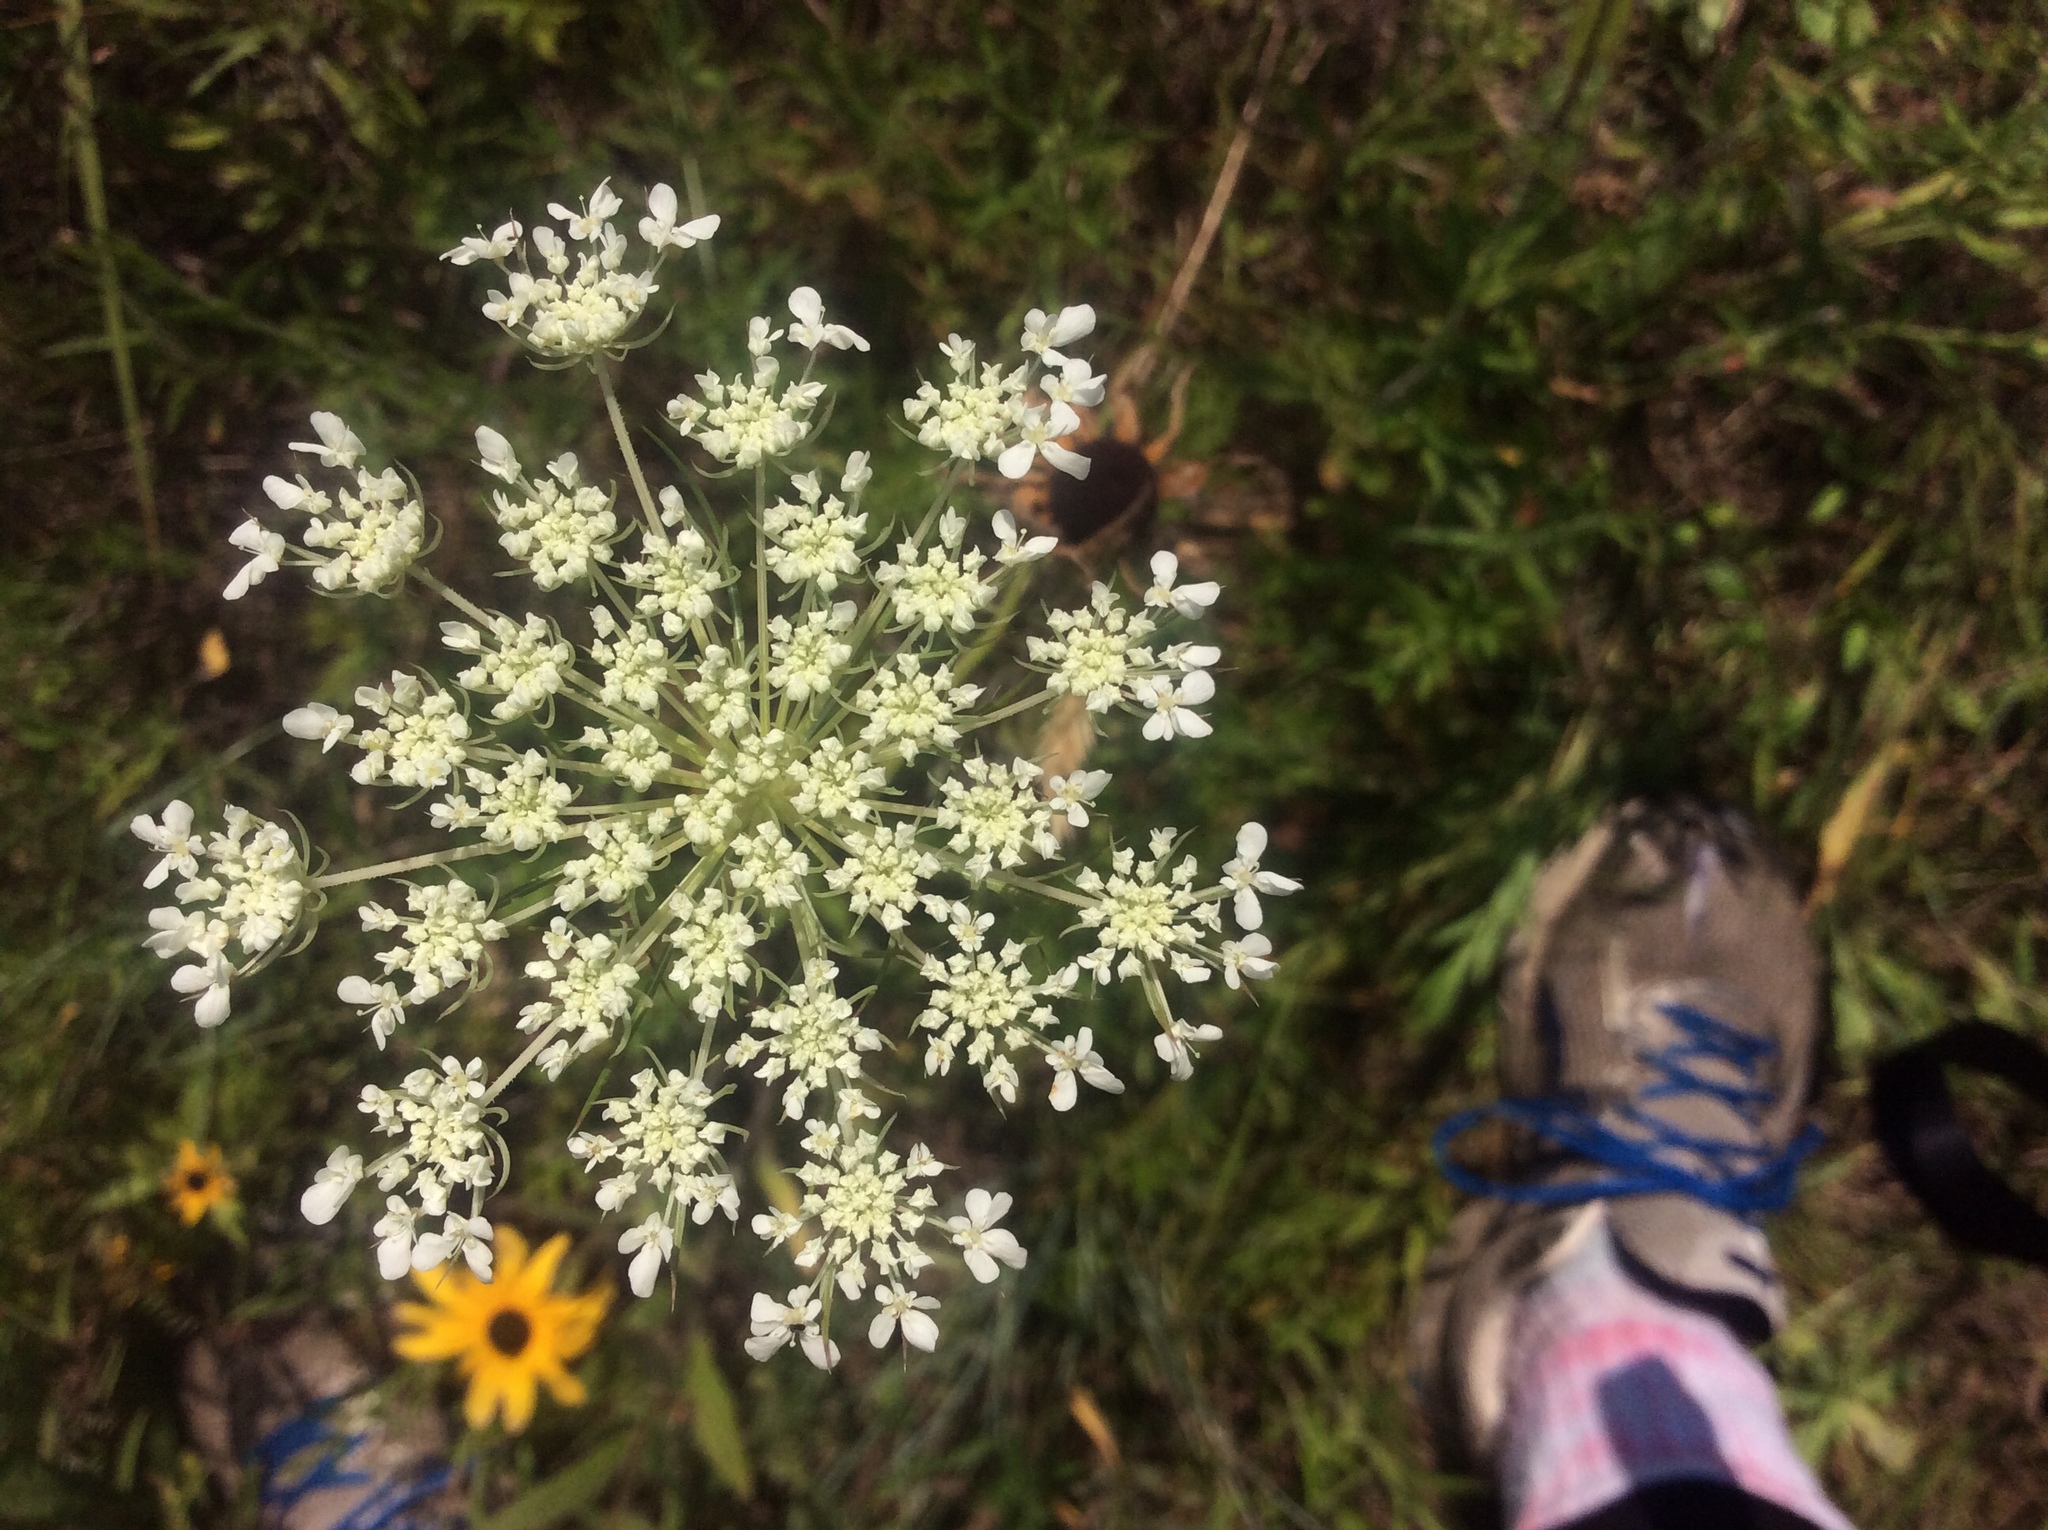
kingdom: Plantae
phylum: Tracheophyta
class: Magnoliopsida
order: Apiales
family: Apiaceae
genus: Daucus
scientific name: Daucus carota
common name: Wild carrot
